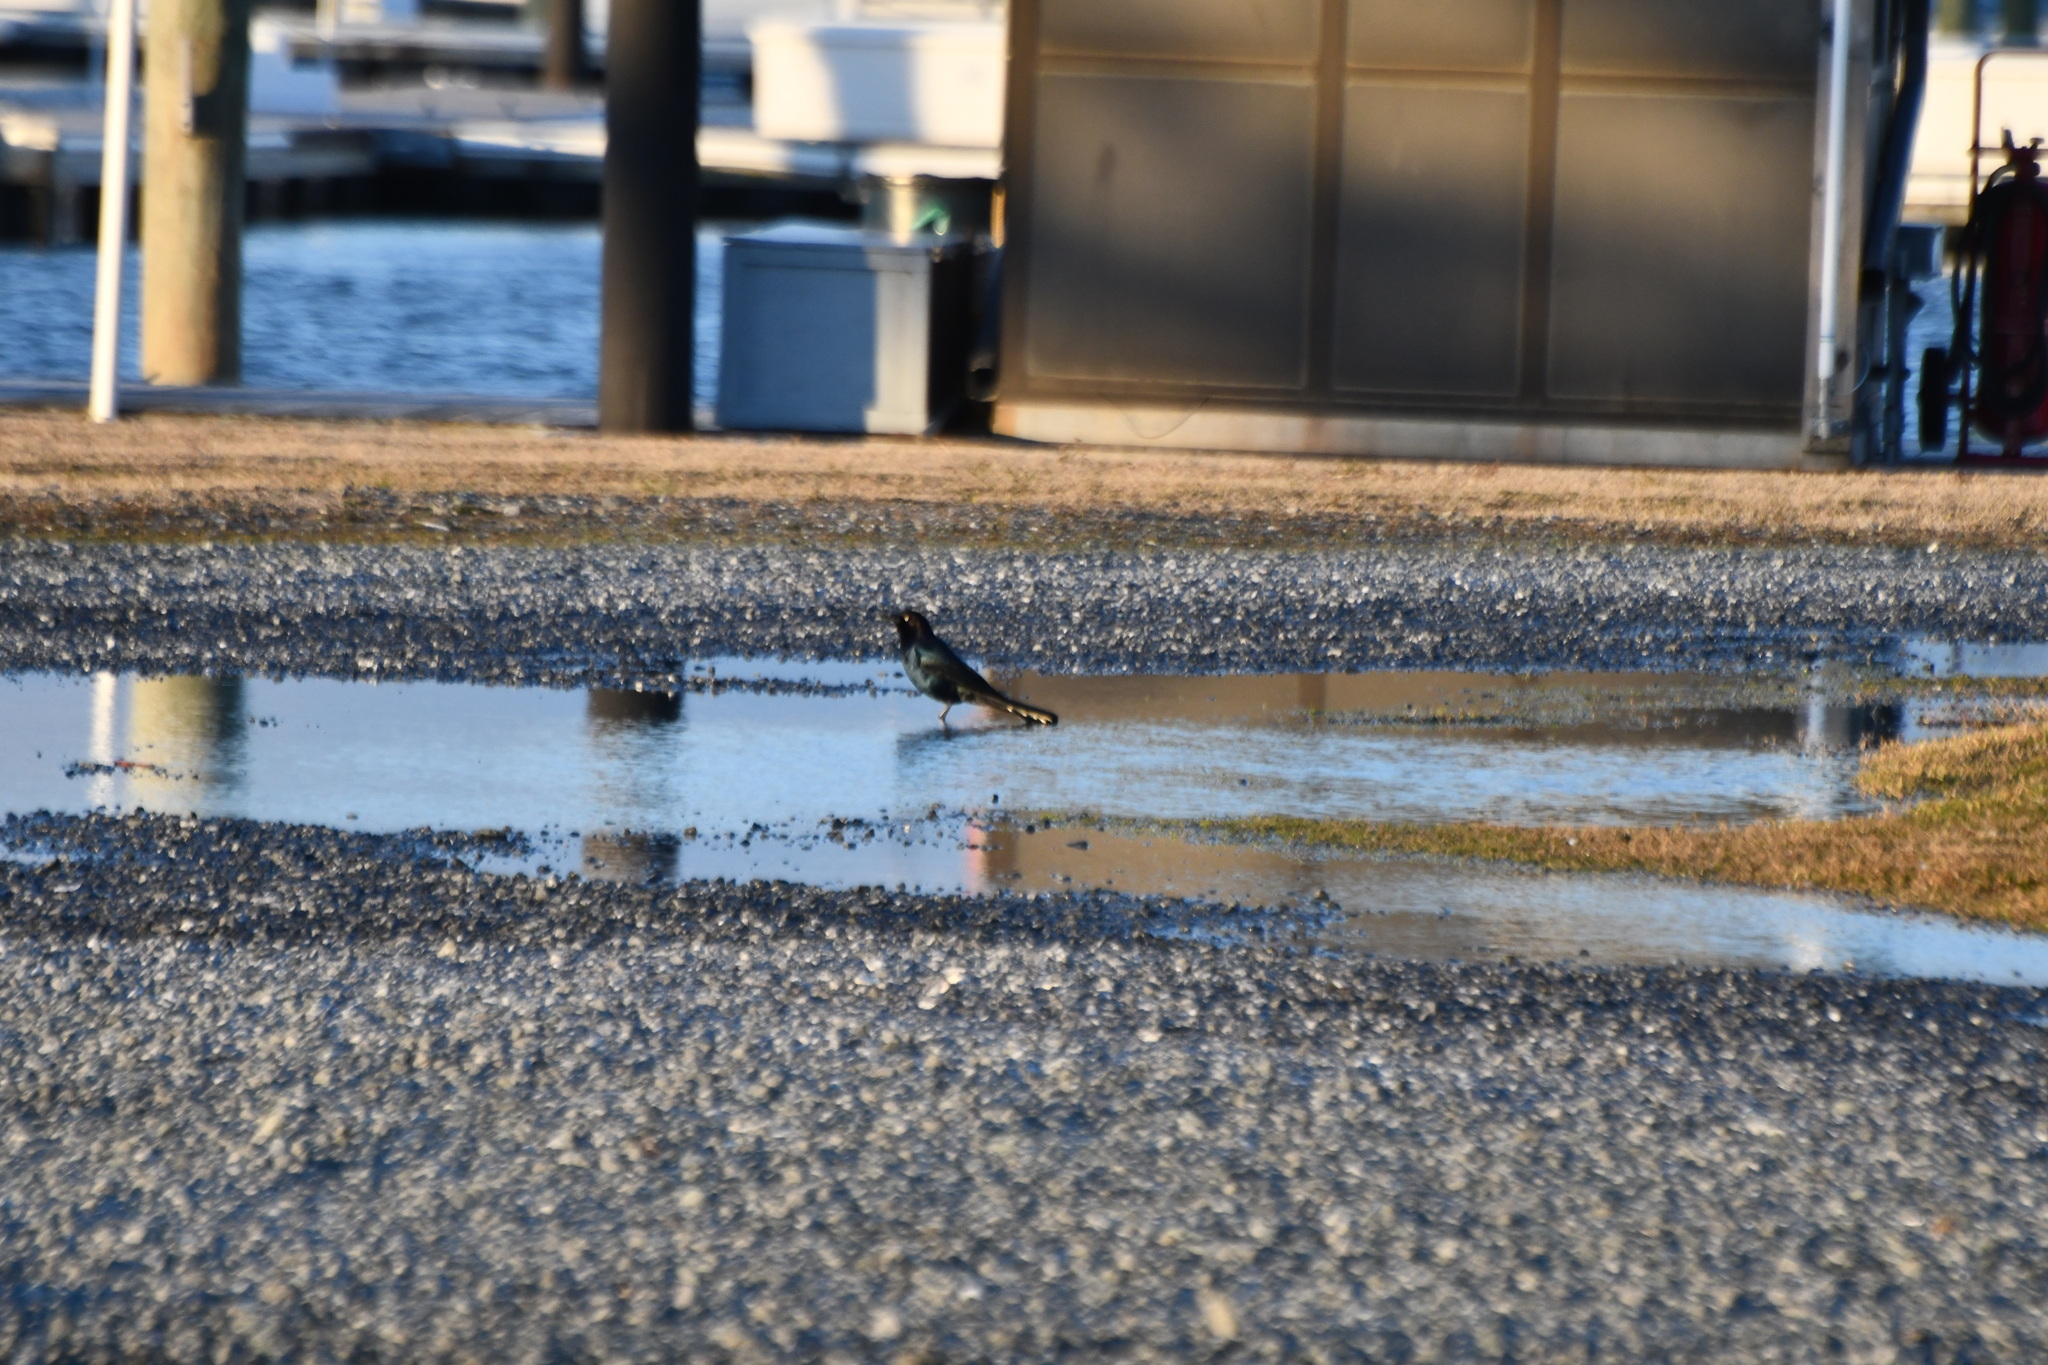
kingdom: Animalia
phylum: Chordata
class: Aves
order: Passeriformes
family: Icteridae
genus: Quiscalus
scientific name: Quiscalus major
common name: Boat-tailed grackle
